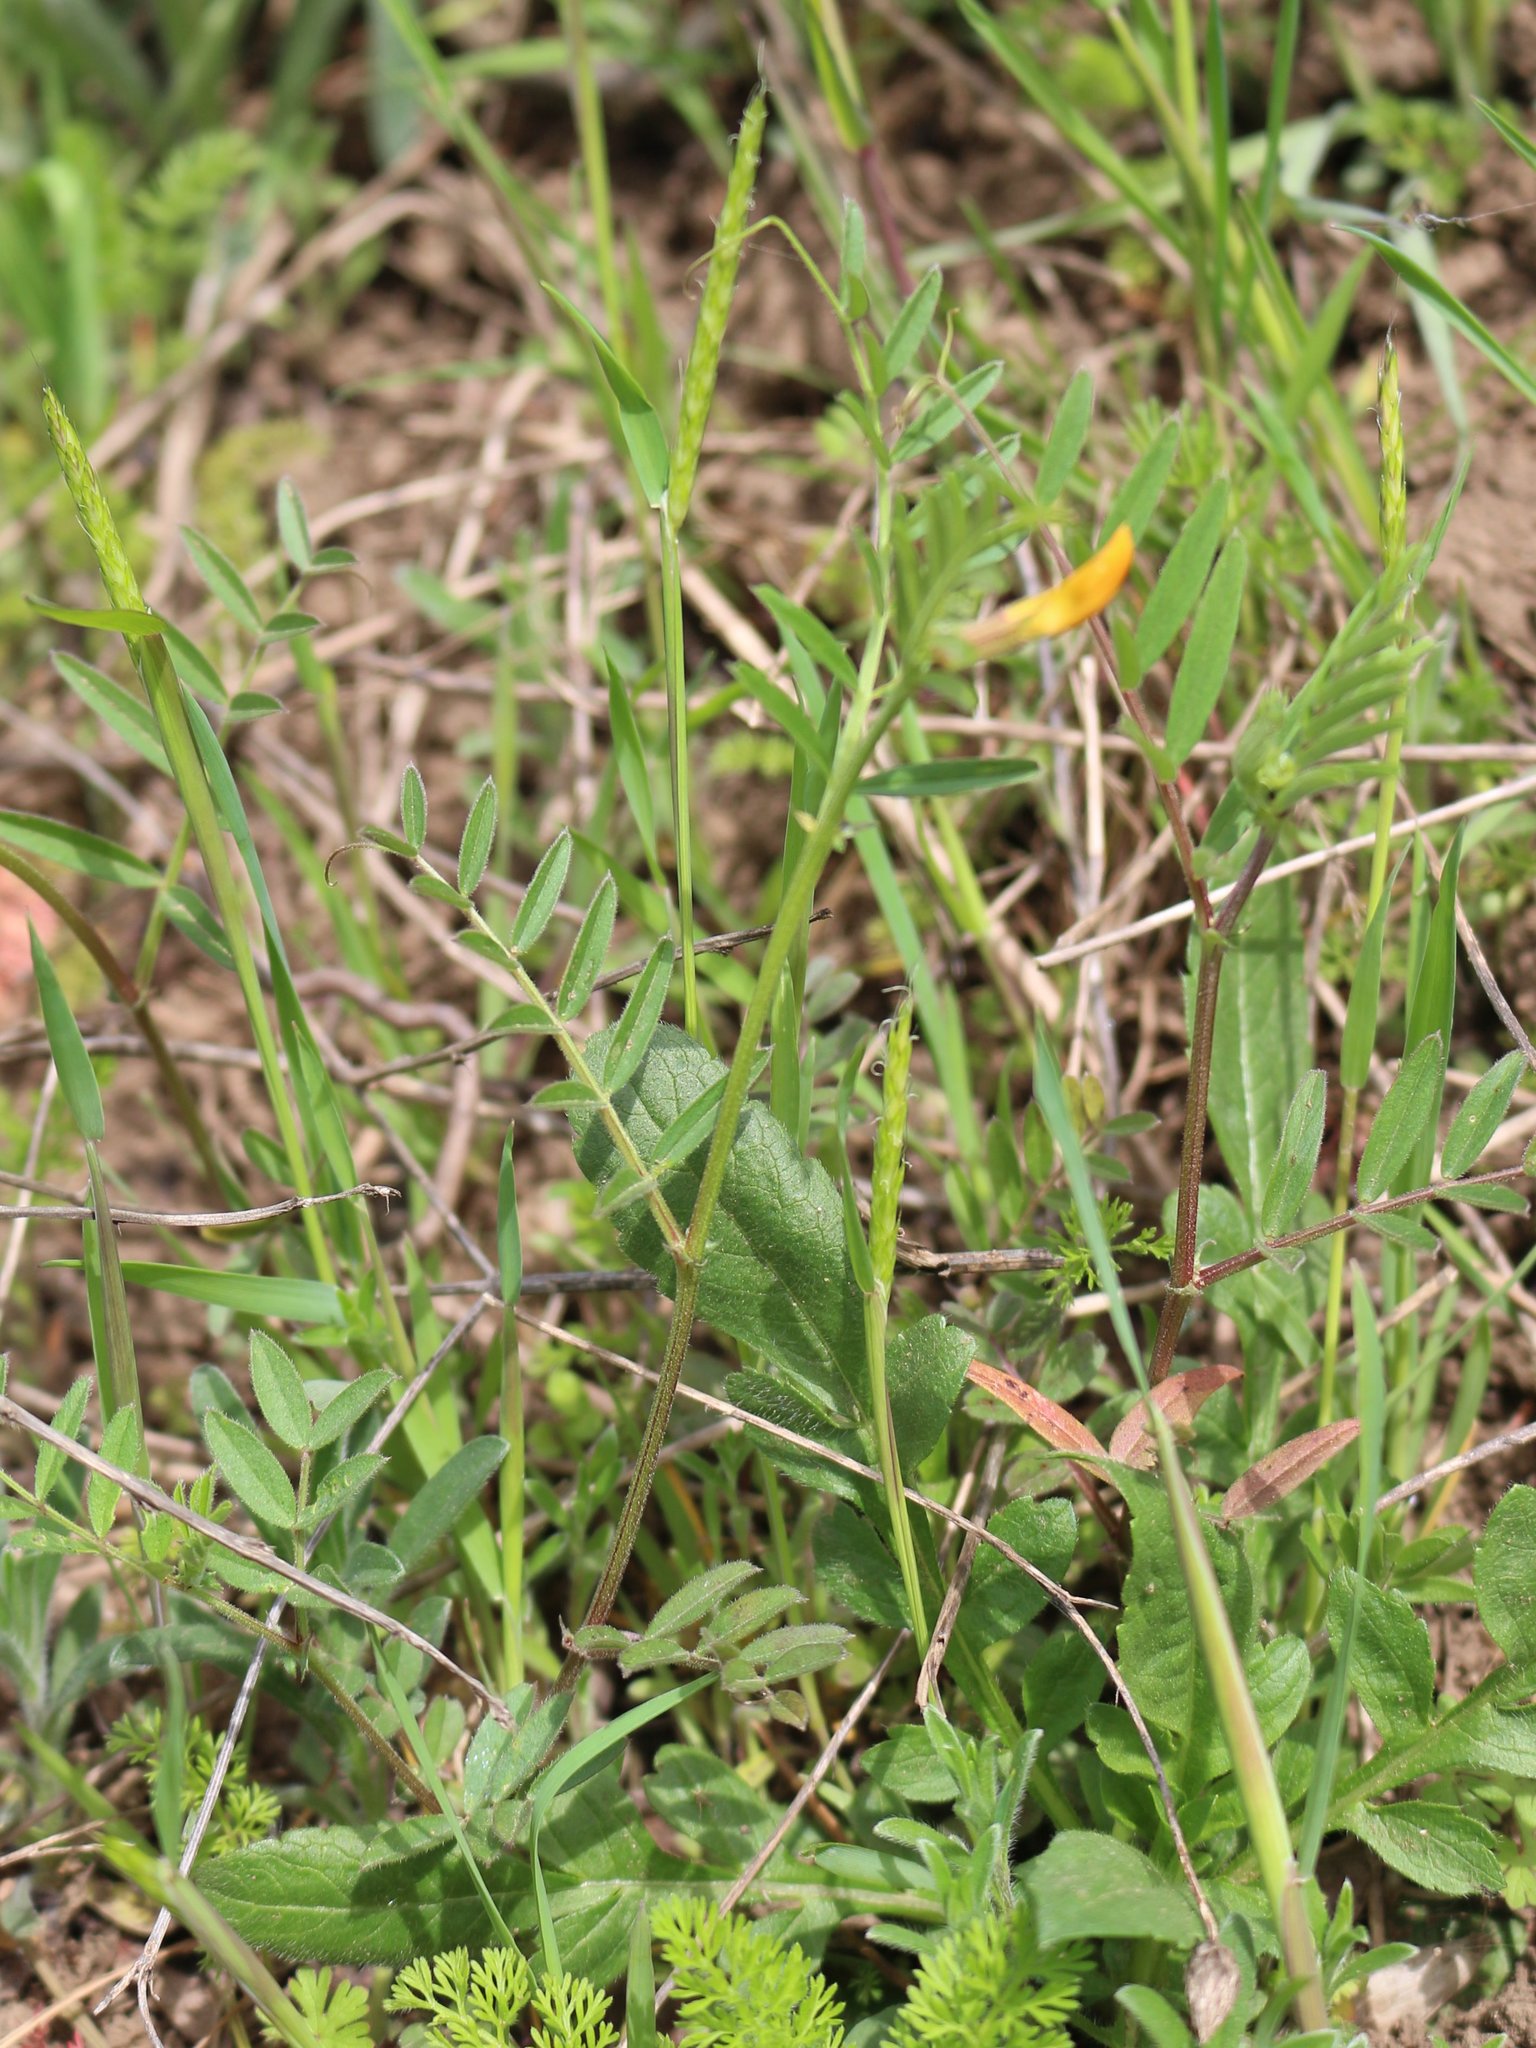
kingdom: Plantae
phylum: Tracheophyta
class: Magnoliopsida
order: Fabales
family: Fabaceae
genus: Vicia
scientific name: Vicia grandiflora
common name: Large yellow vetch
